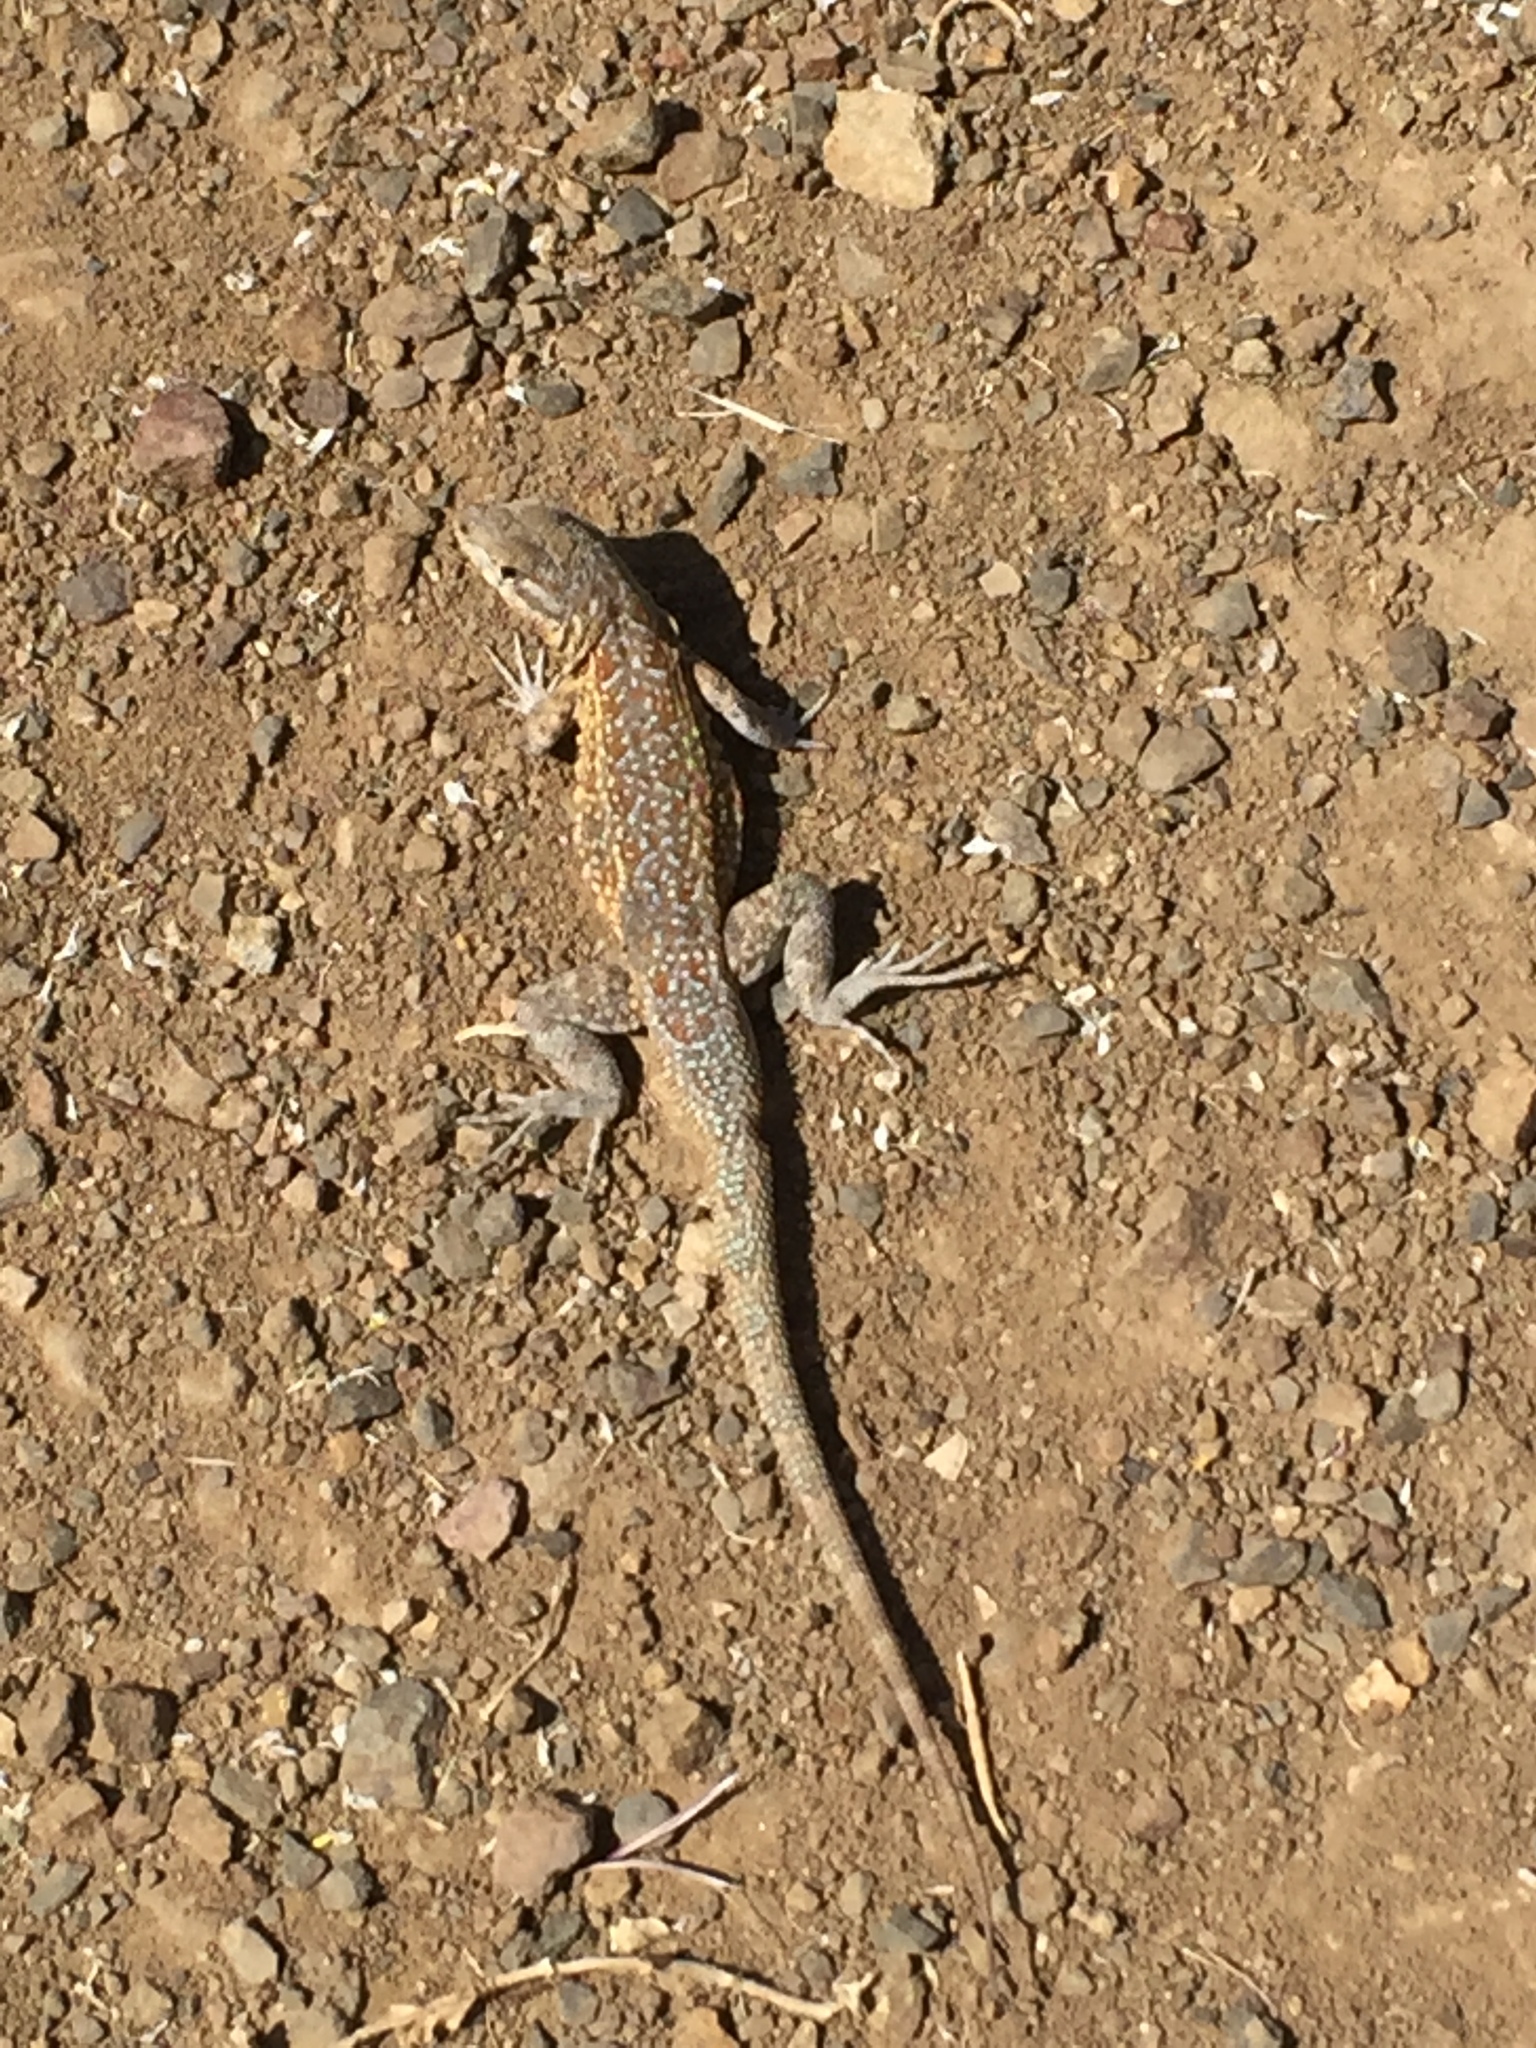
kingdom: Animalia
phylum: Chordata
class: Squamata
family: Phrynosomatidae
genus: Uta
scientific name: Uta stansburiana
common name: Side-blotched lizard
